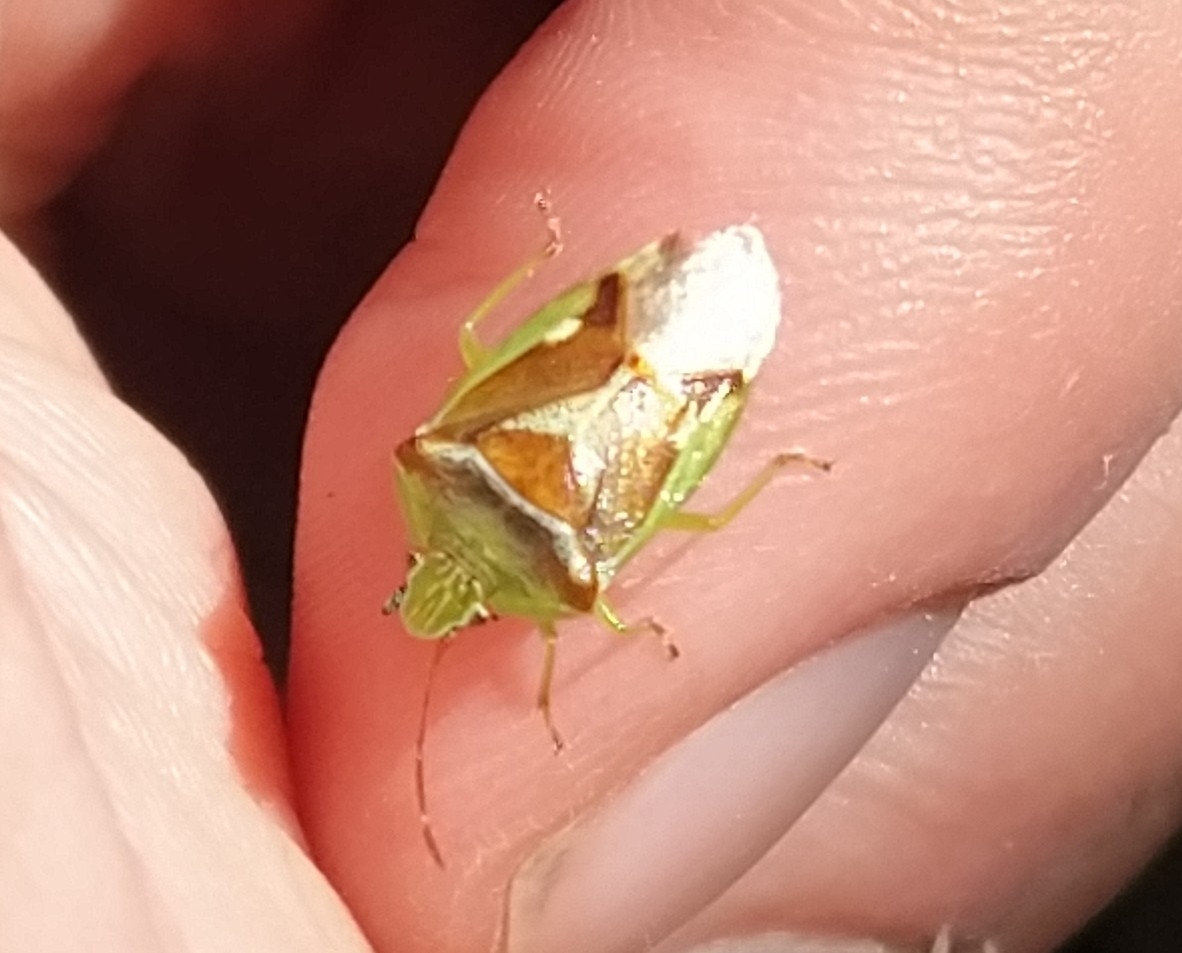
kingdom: Animalia
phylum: Arthropoda
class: Insecta
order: Hemiptera
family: Acanthosomatidae
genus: Oncacontias
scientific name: Oncacontias vittatus
